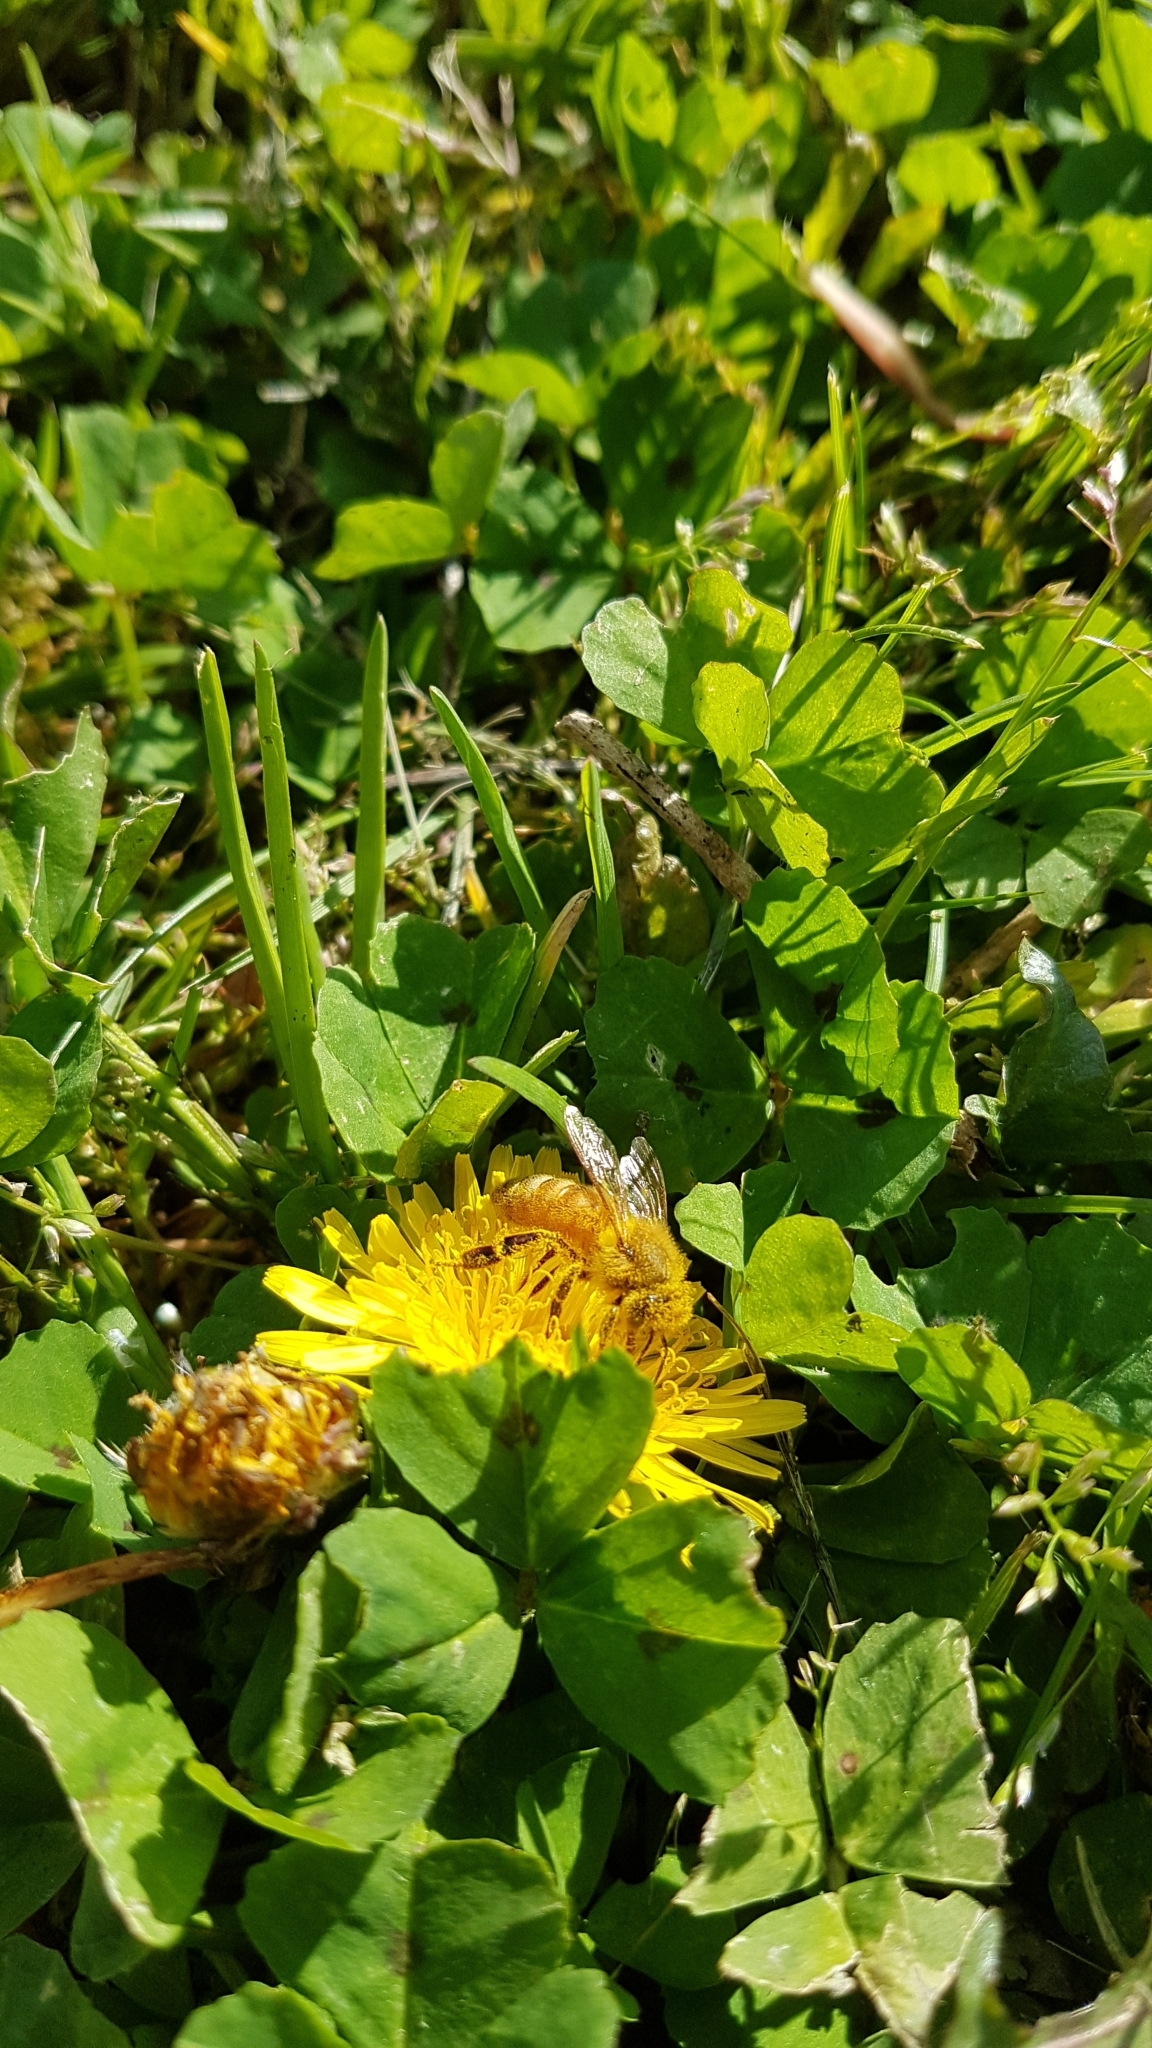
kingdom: Animalia
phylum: Arthropoda
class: Insecta
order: Hymenoptera
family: Apidae
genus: Apis
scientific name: Apis mellifera
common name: Honey bee
